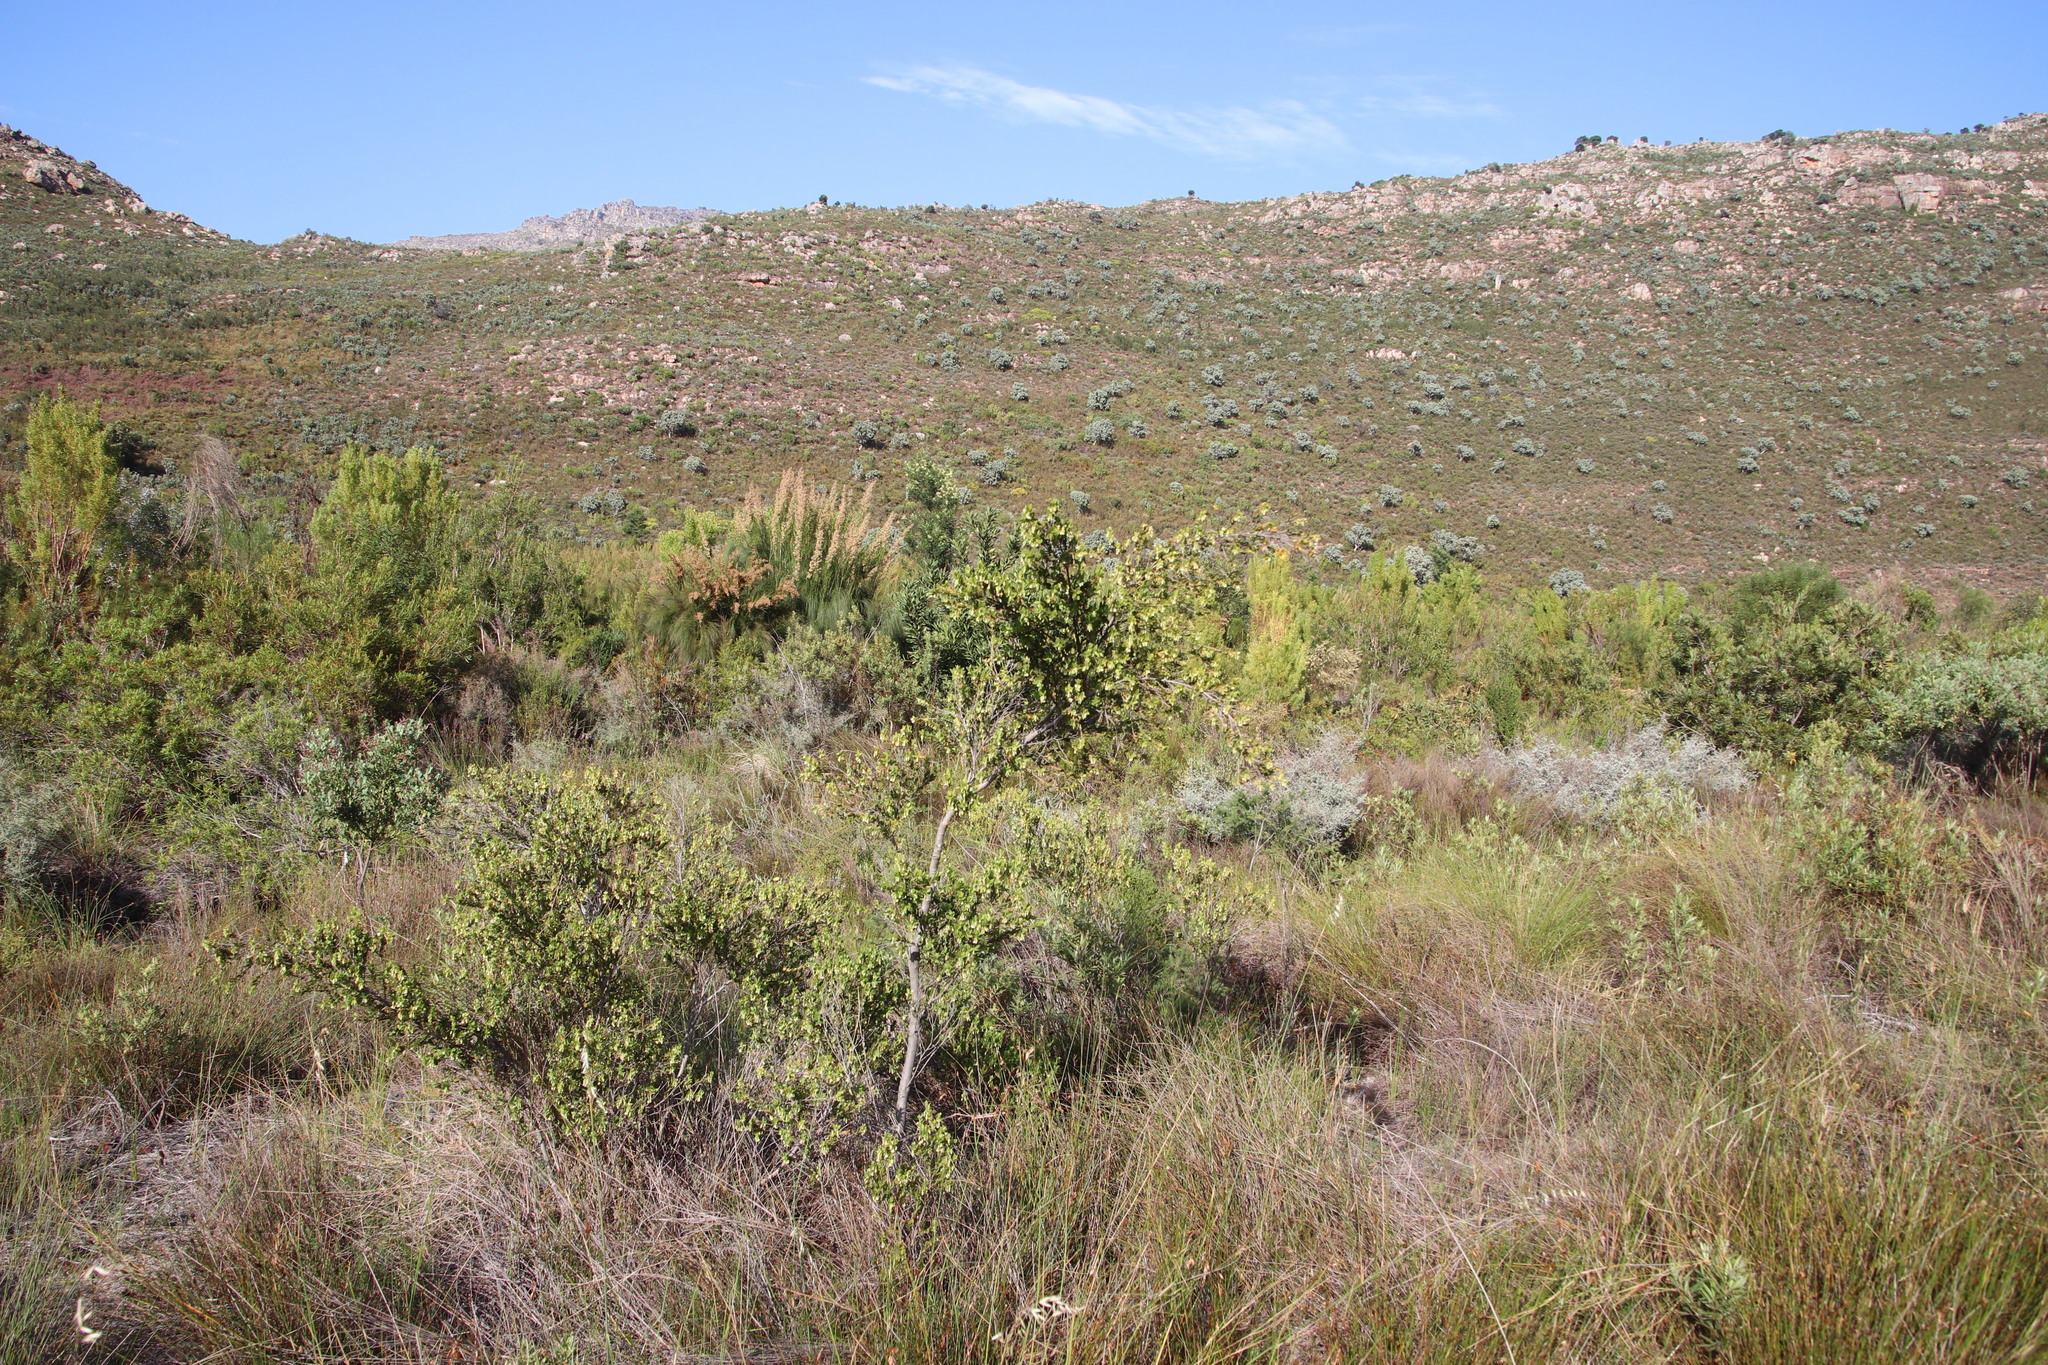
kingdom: Plantae
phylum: Tracheophyta
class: Magnoliopsida
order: Ericales
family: Ebenaceae
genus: Diospyros
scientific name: Diospyros glabra
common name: Fynbos star apple
